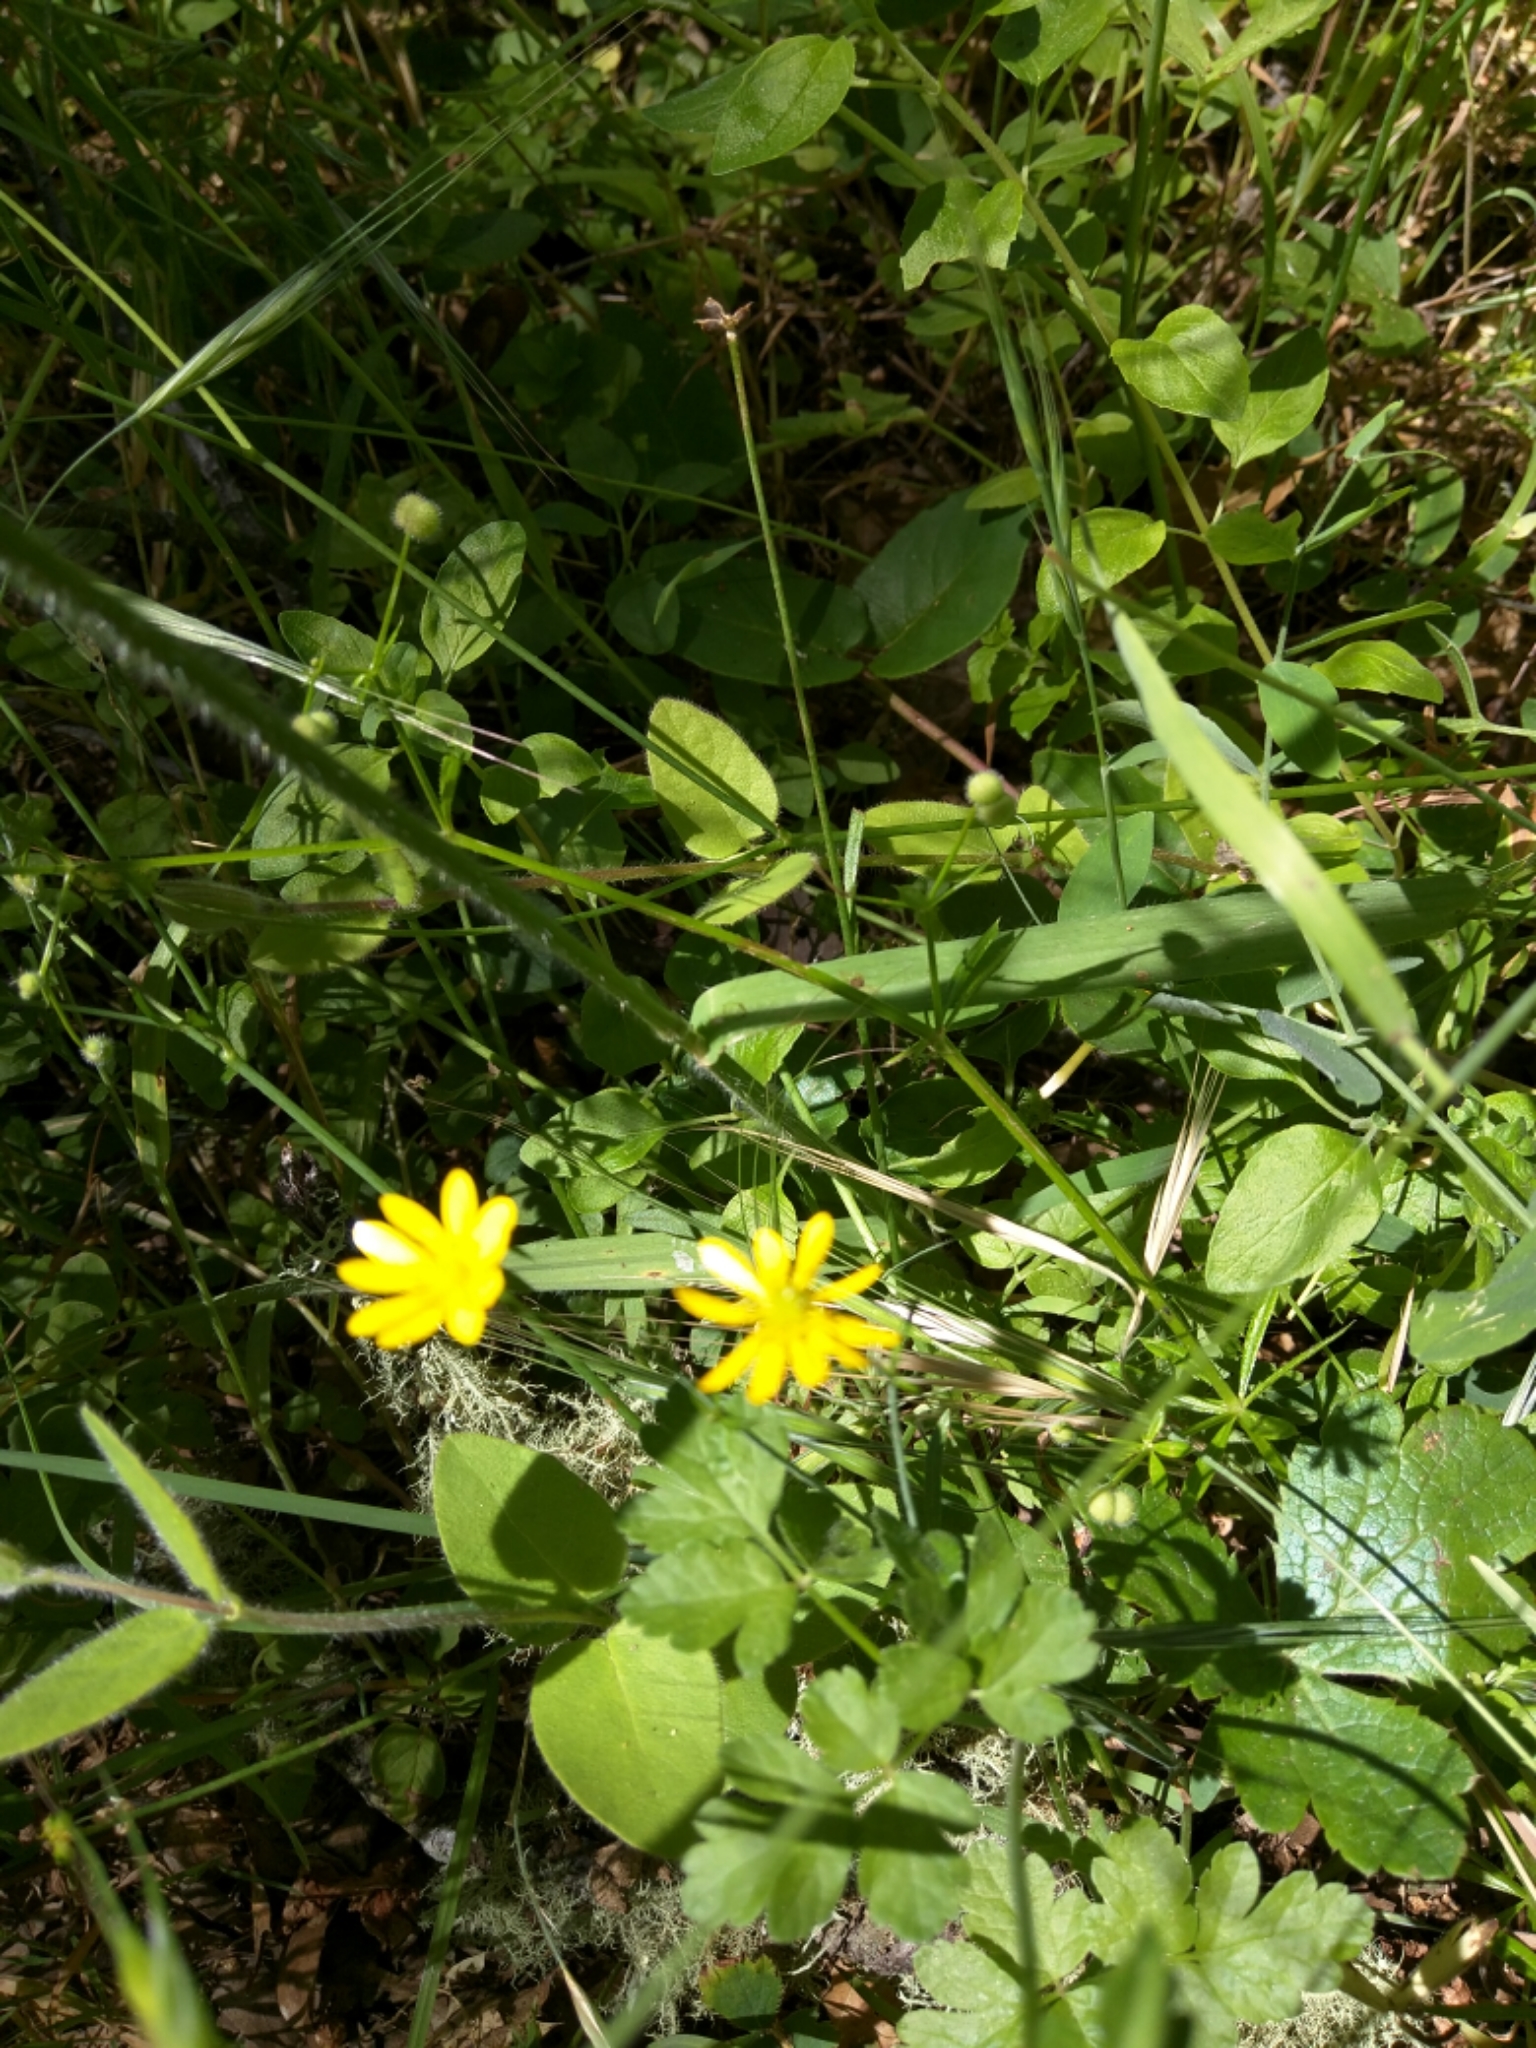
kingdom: Plantae
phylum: Tracheophyta
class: Magnoliopsida
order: Ranunculales
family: Ranunculaceae
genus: Ranunculus
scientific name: Ranunculus californicus
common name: California buttercup
